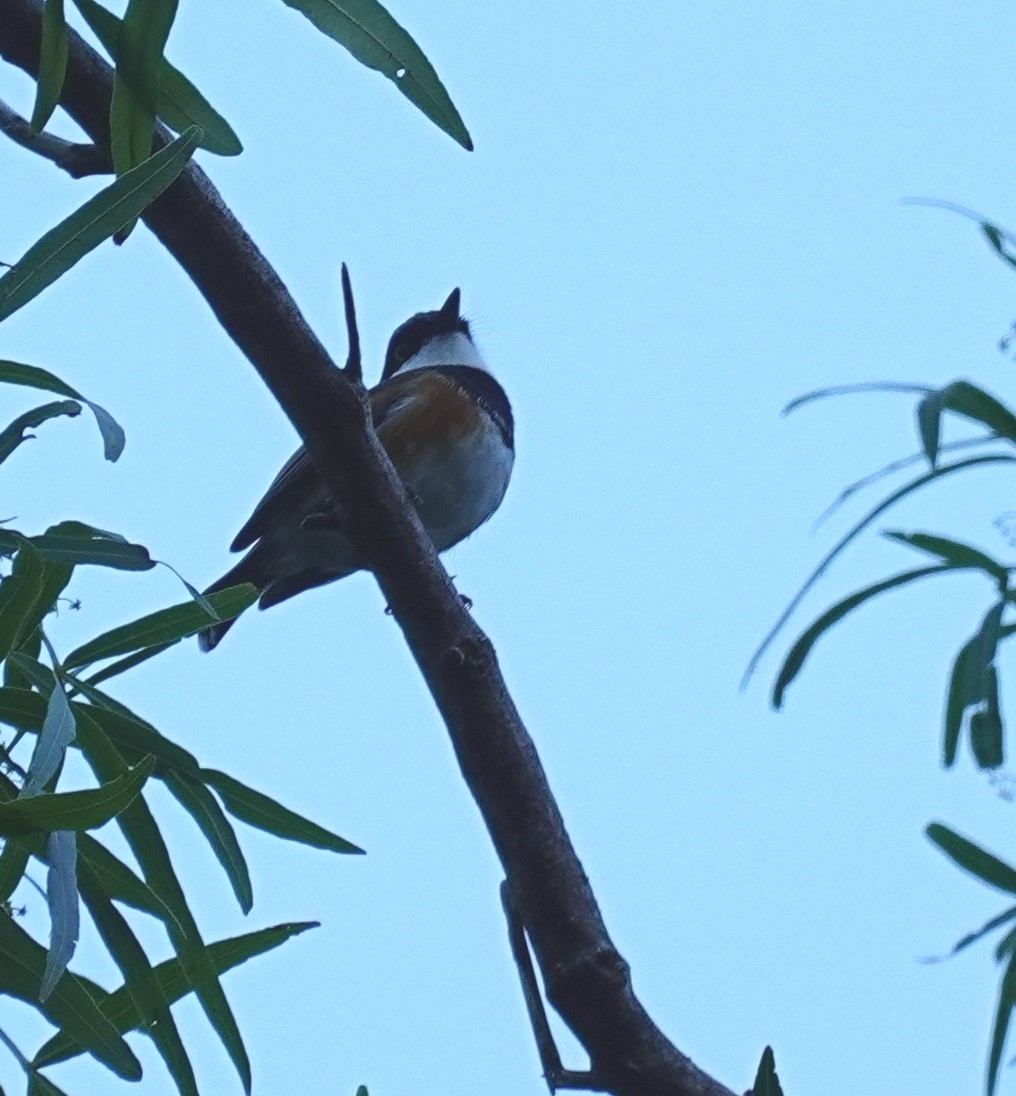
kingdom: Animalia
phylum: Chordata
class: Aves
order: Passeriformes
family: Platysteiridae
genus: Batis
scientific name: Batis capensis
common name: Cape batis
